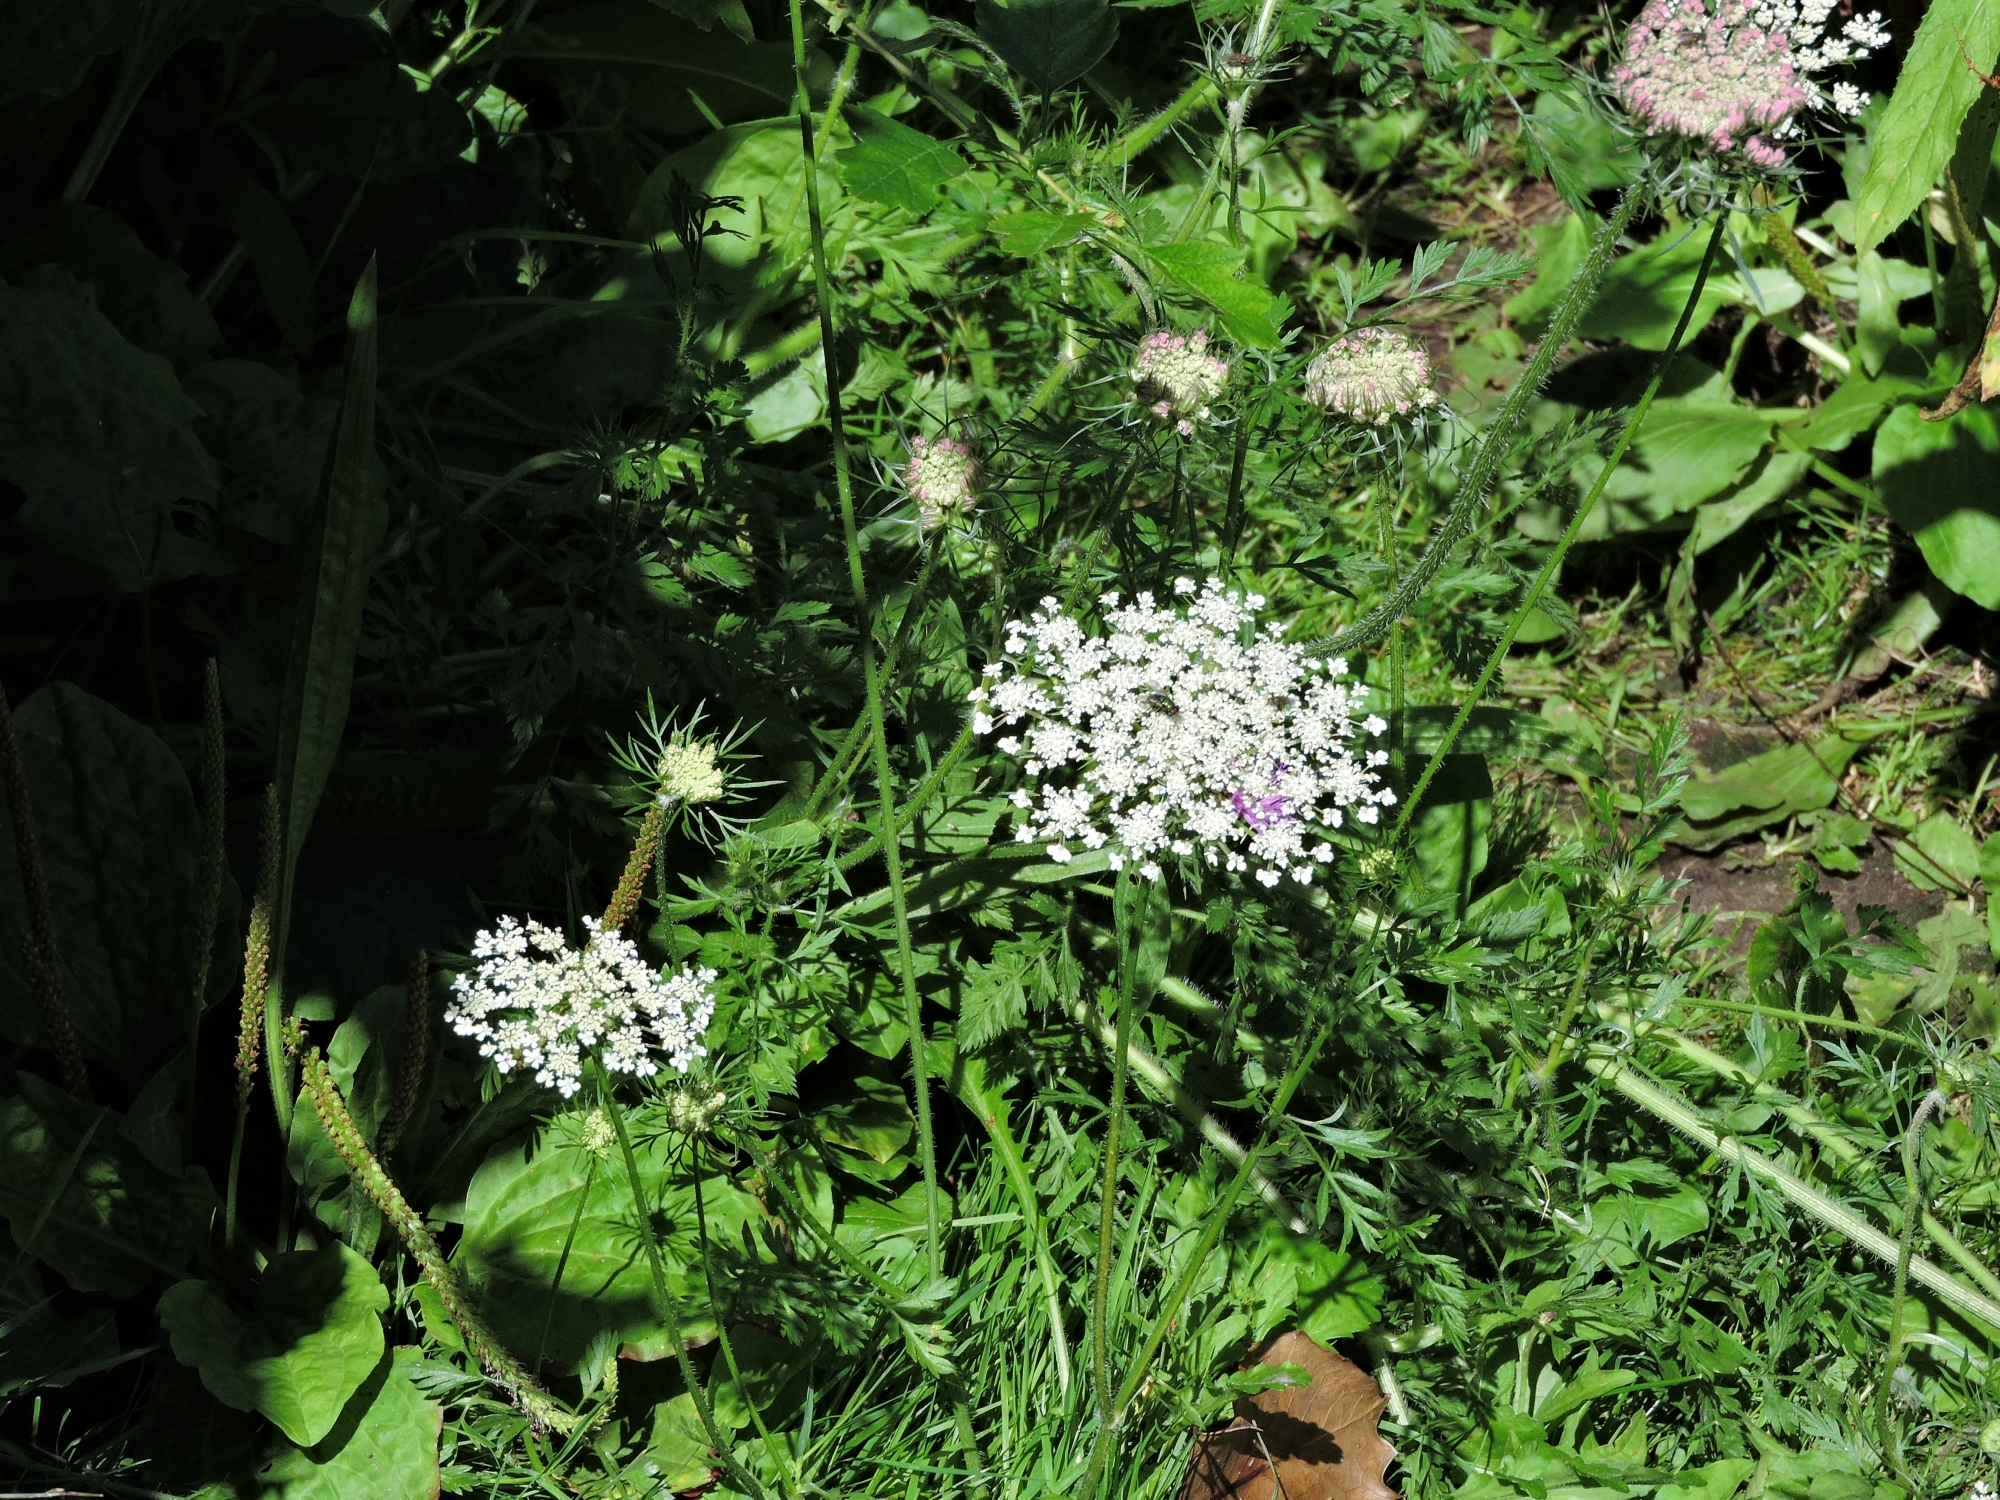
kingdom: Plantae
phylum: Tracheophyta
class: Magnoliopsida
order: Apiales
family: Apiaceae
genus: Daucus
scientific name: Daucus carota
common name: Wild carrot
